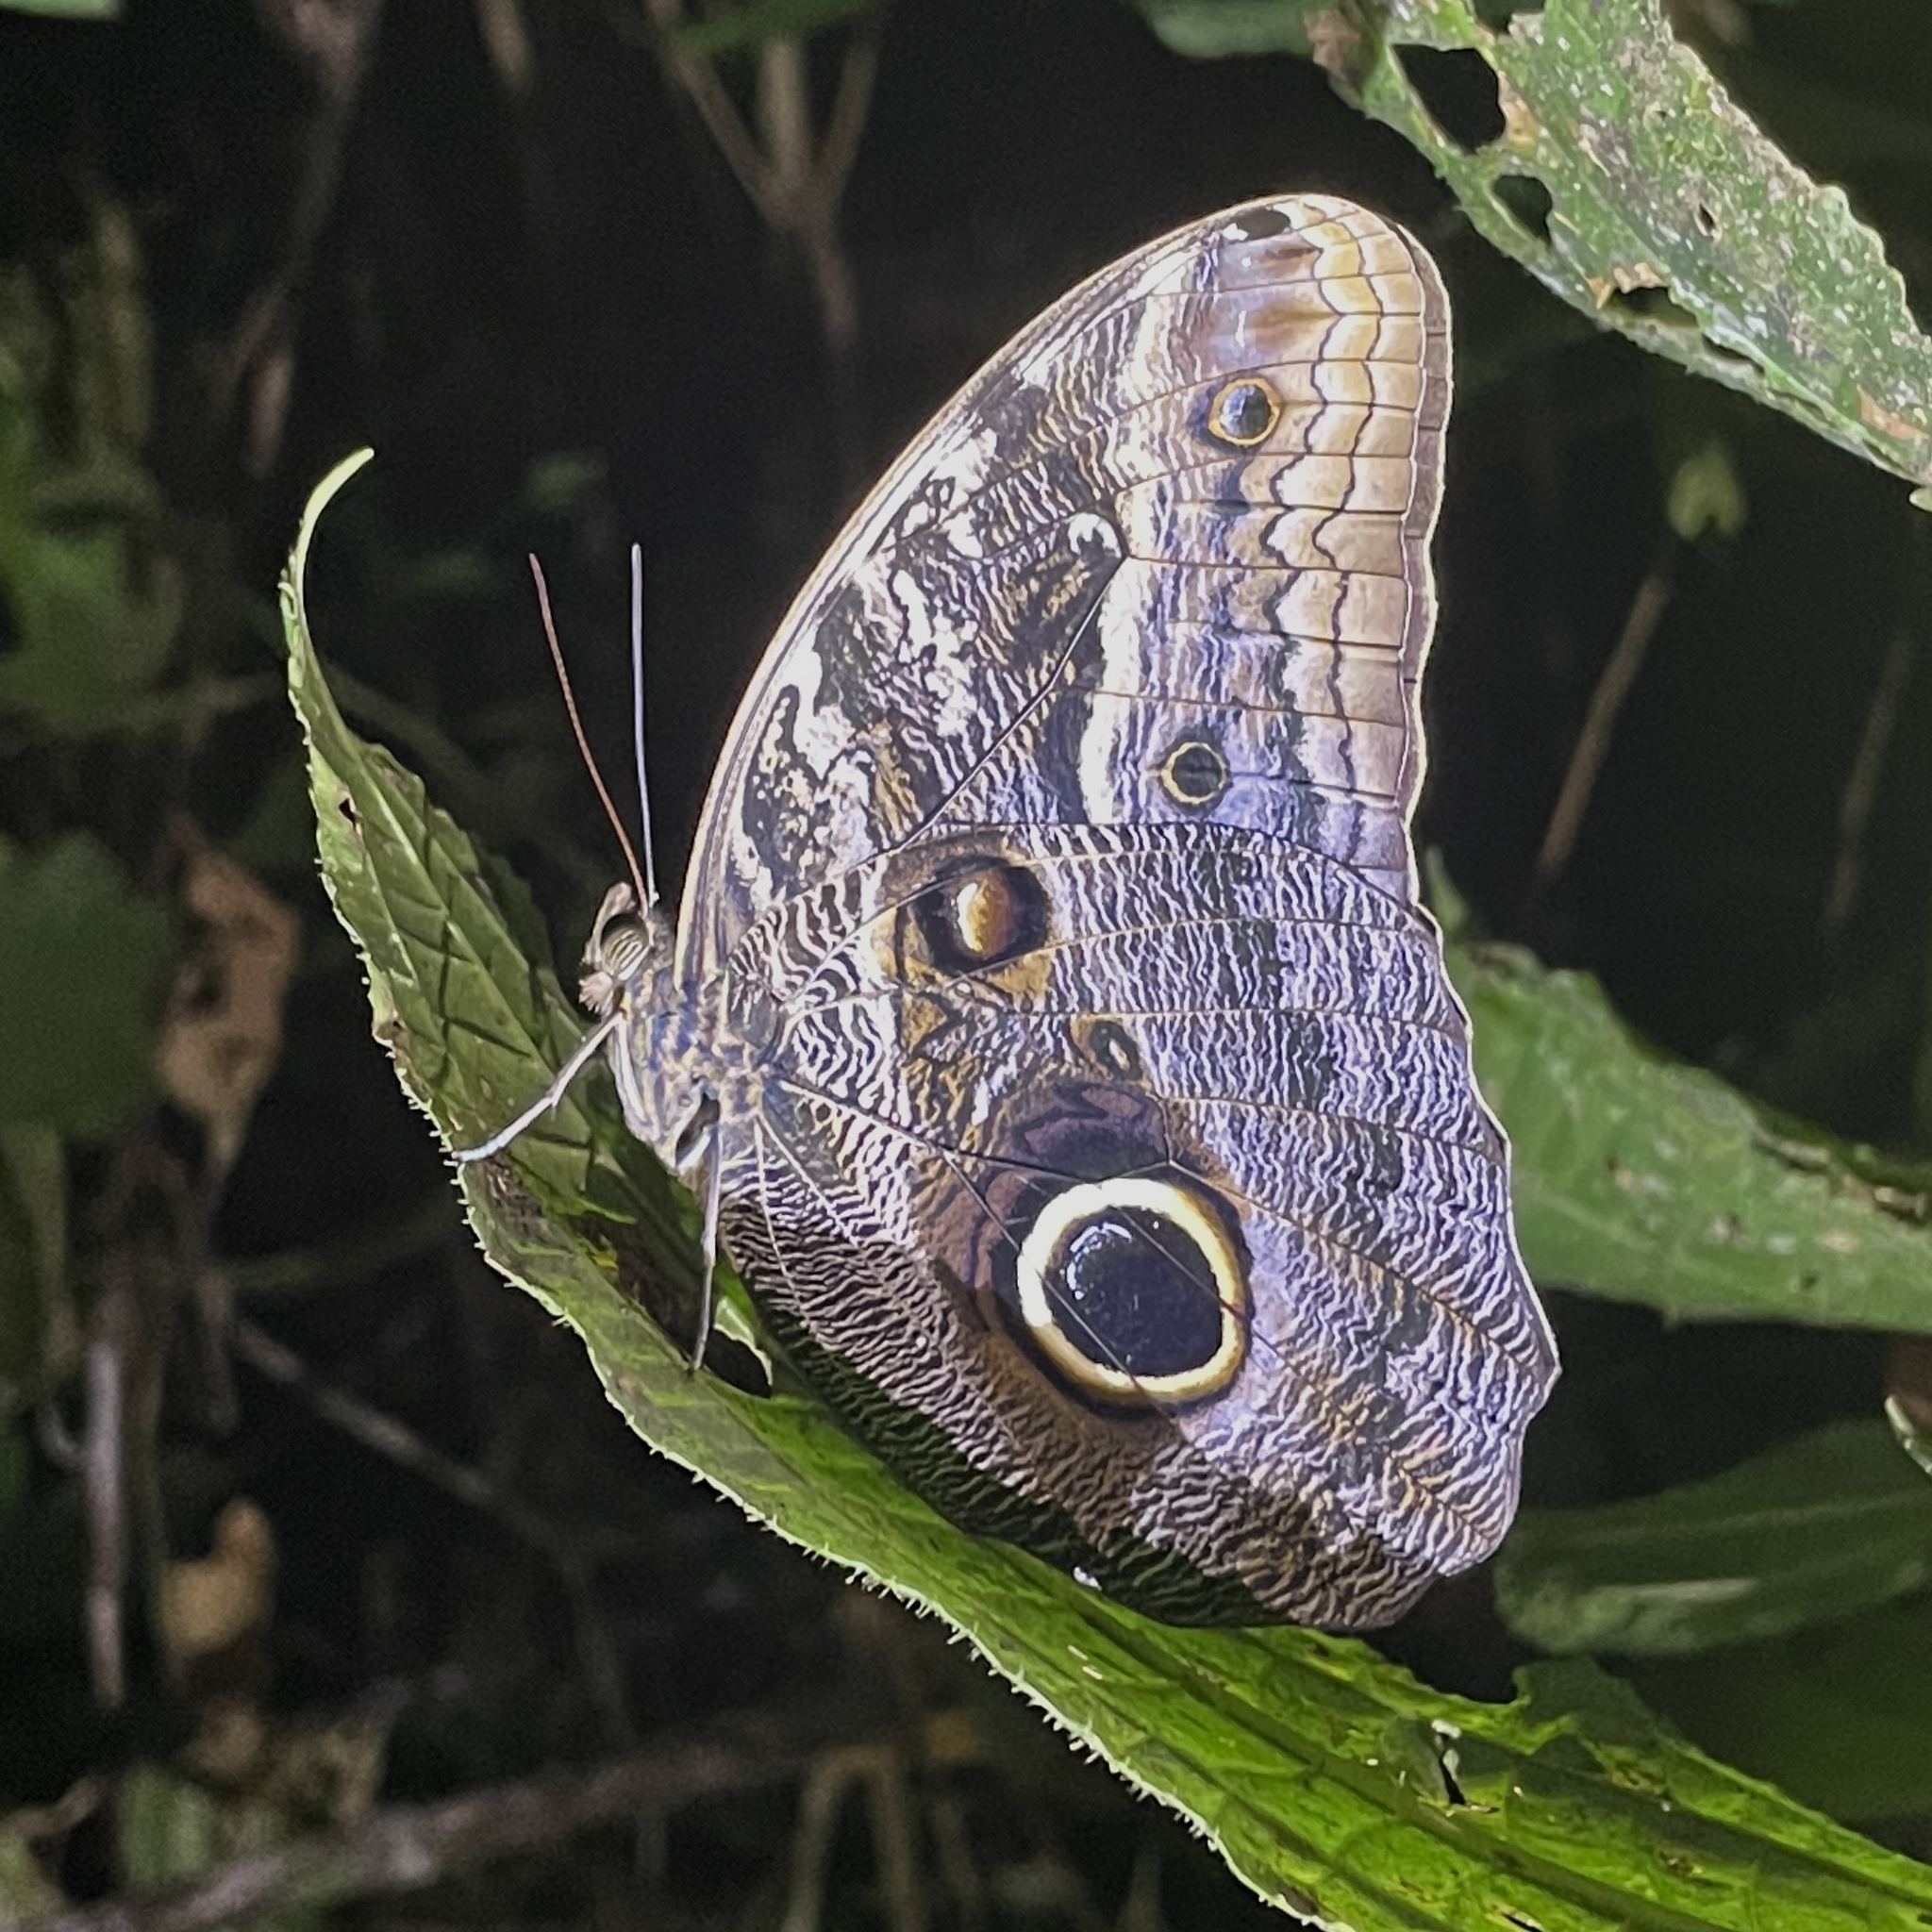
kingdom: Animalia
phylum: Arthropoda
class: Insecta
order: Lepidoptera
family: Nymphalidae
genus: Caligo
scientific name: Caligo teucer
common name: Teucer owl butterfly
